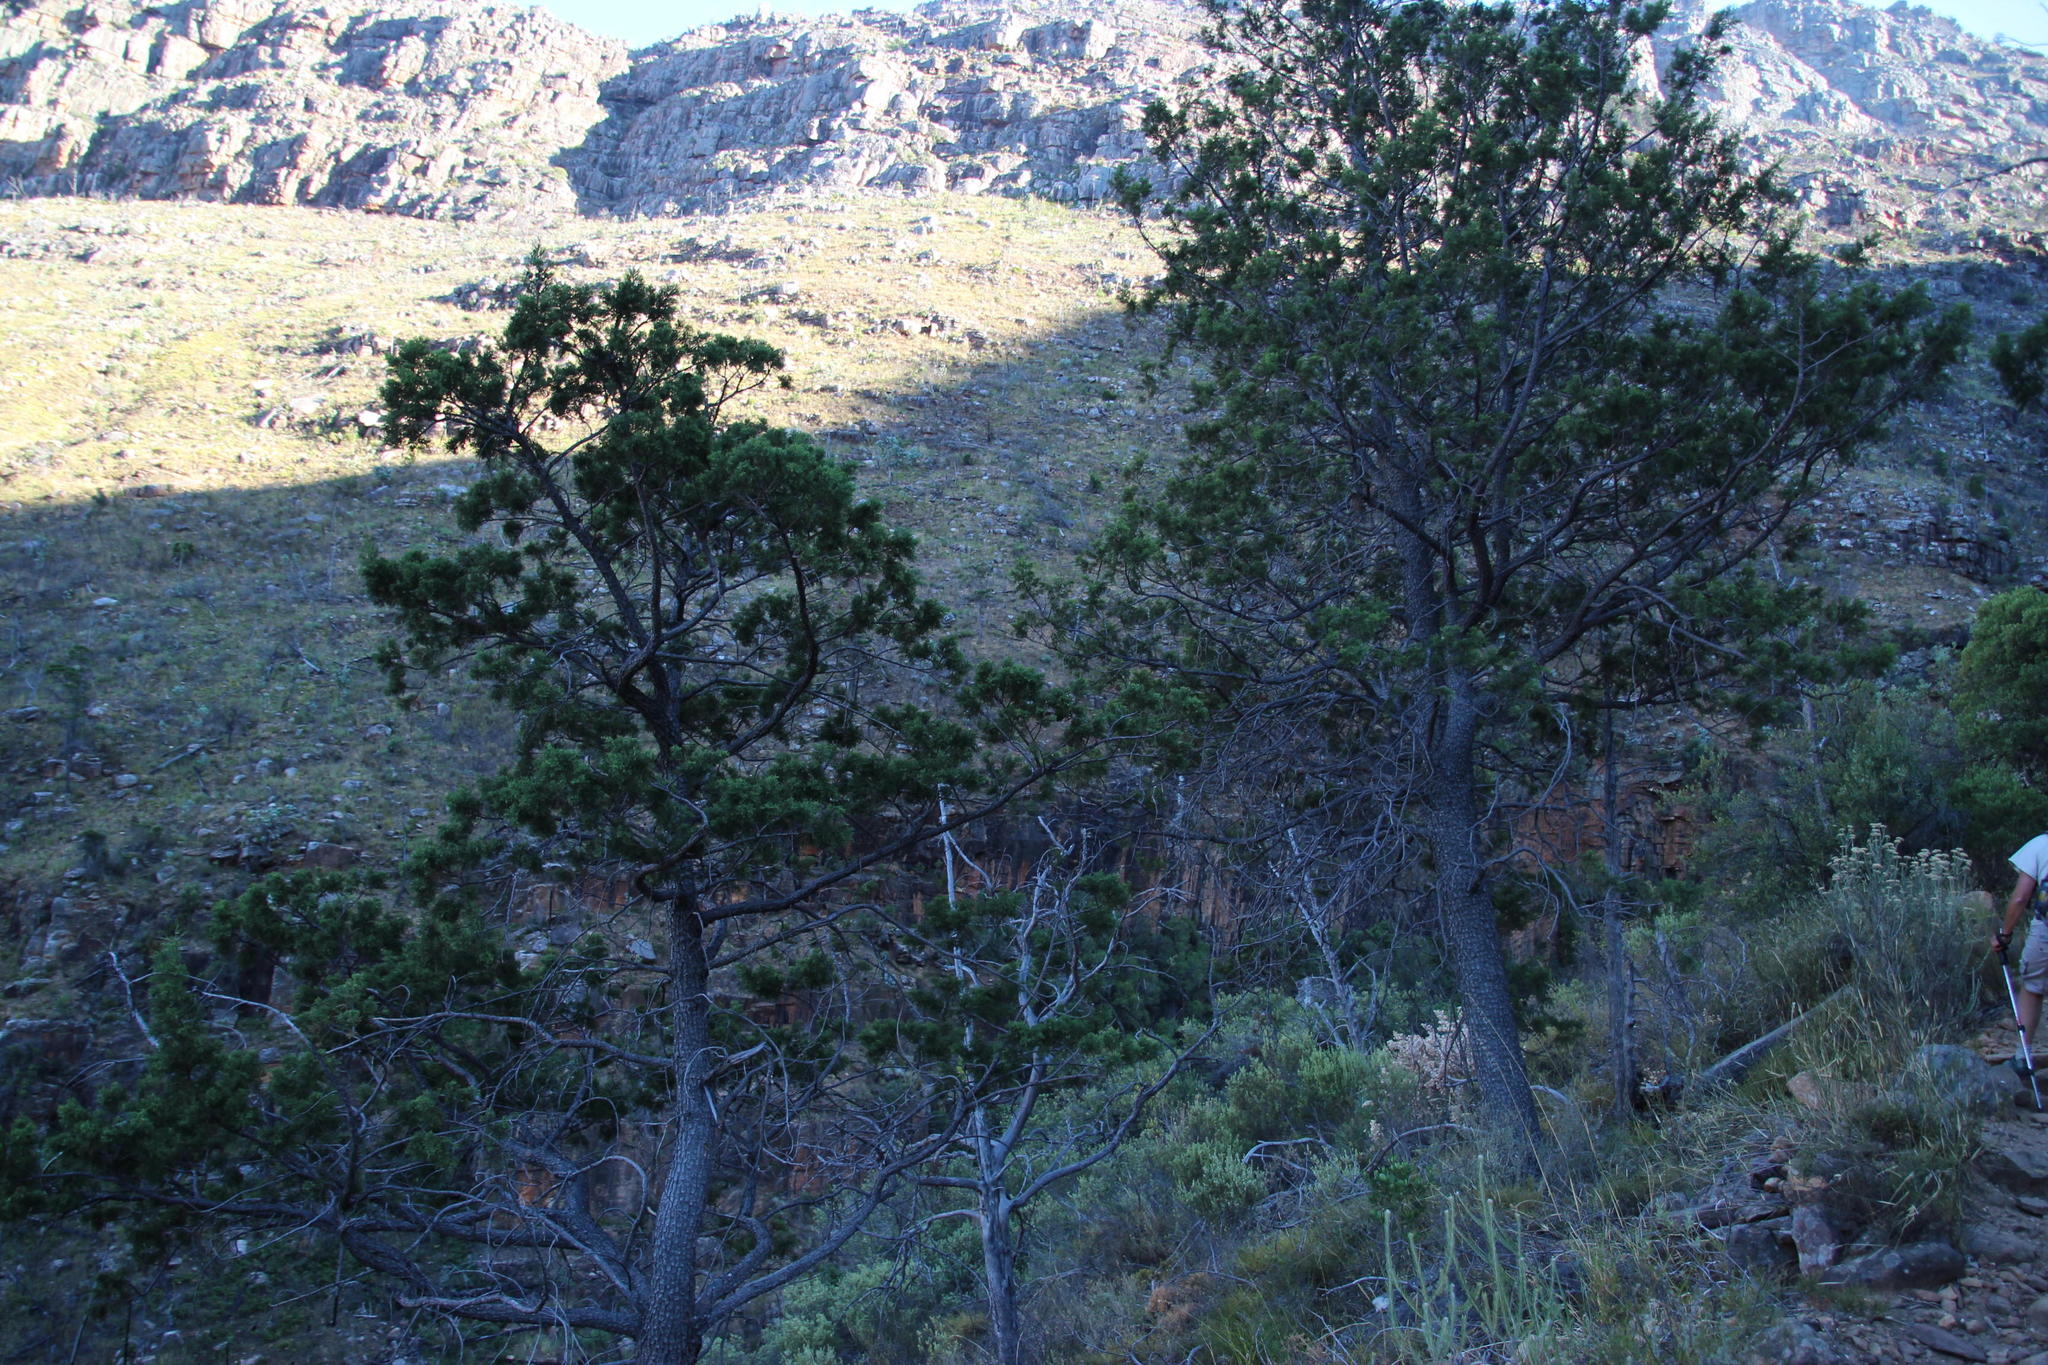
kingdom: Plantae
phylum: Tracheophyta
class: Pinopsida
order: Pinales
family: Cupressaceae
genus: Widdringtonia
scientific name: Widdringtonia nodiflora
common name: Cape cypress
